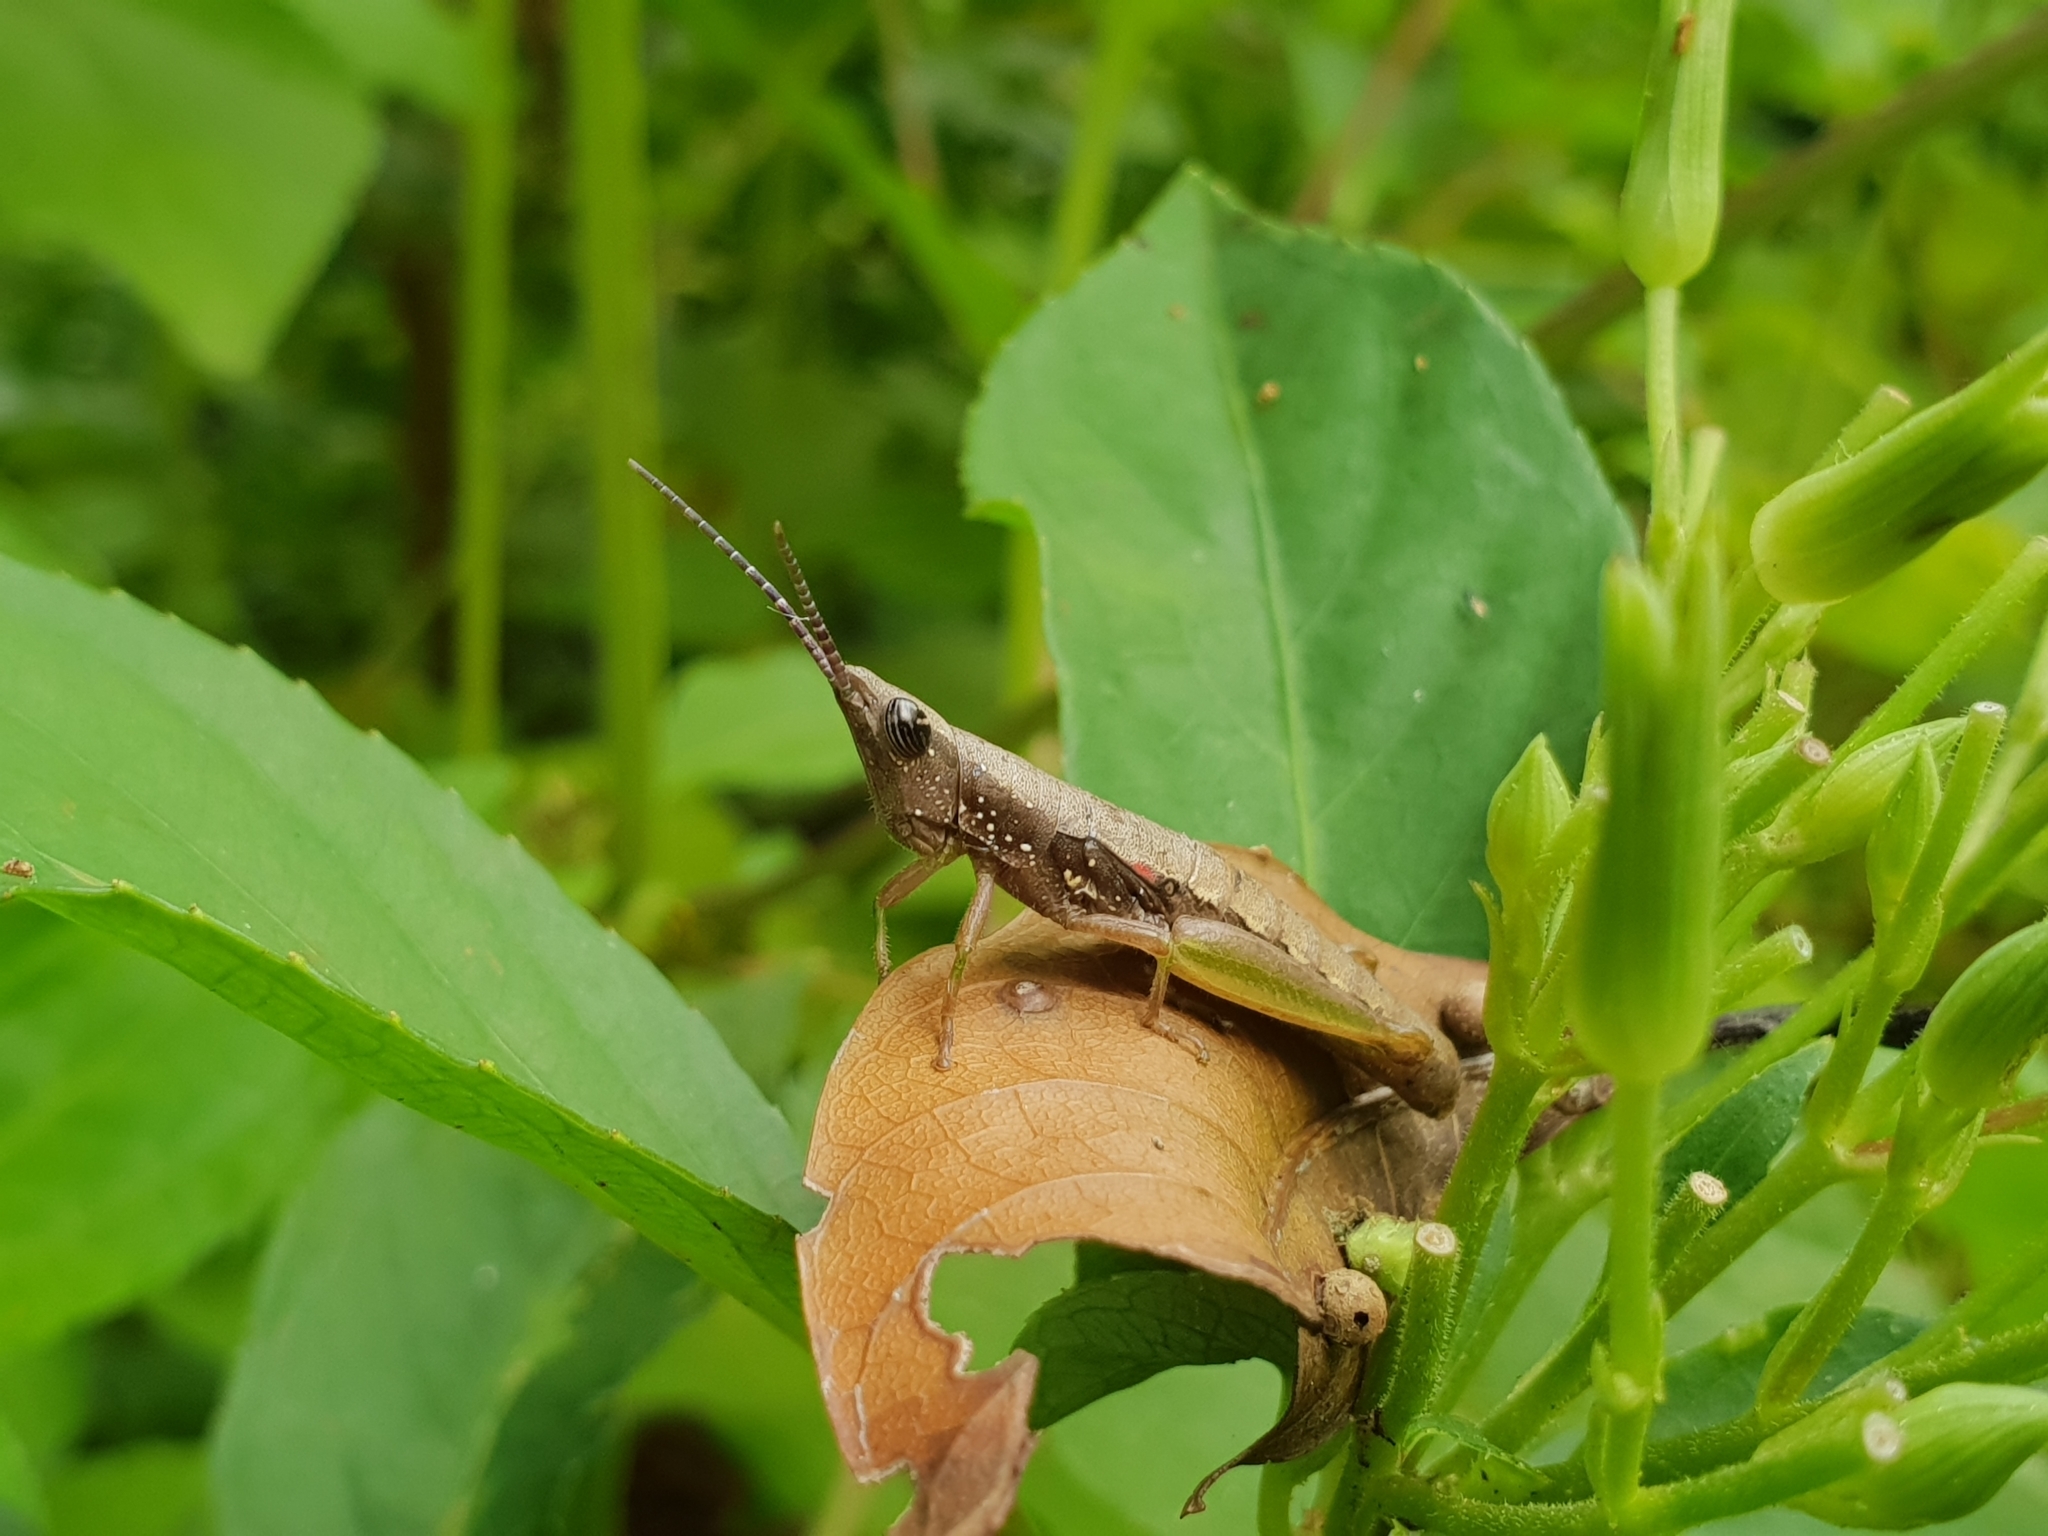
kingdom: Animalia
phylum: Arthropoda
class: Insecta
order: Orthoptera
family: Pyrgomorphidae
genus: Orthacris
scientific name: Orthacris
